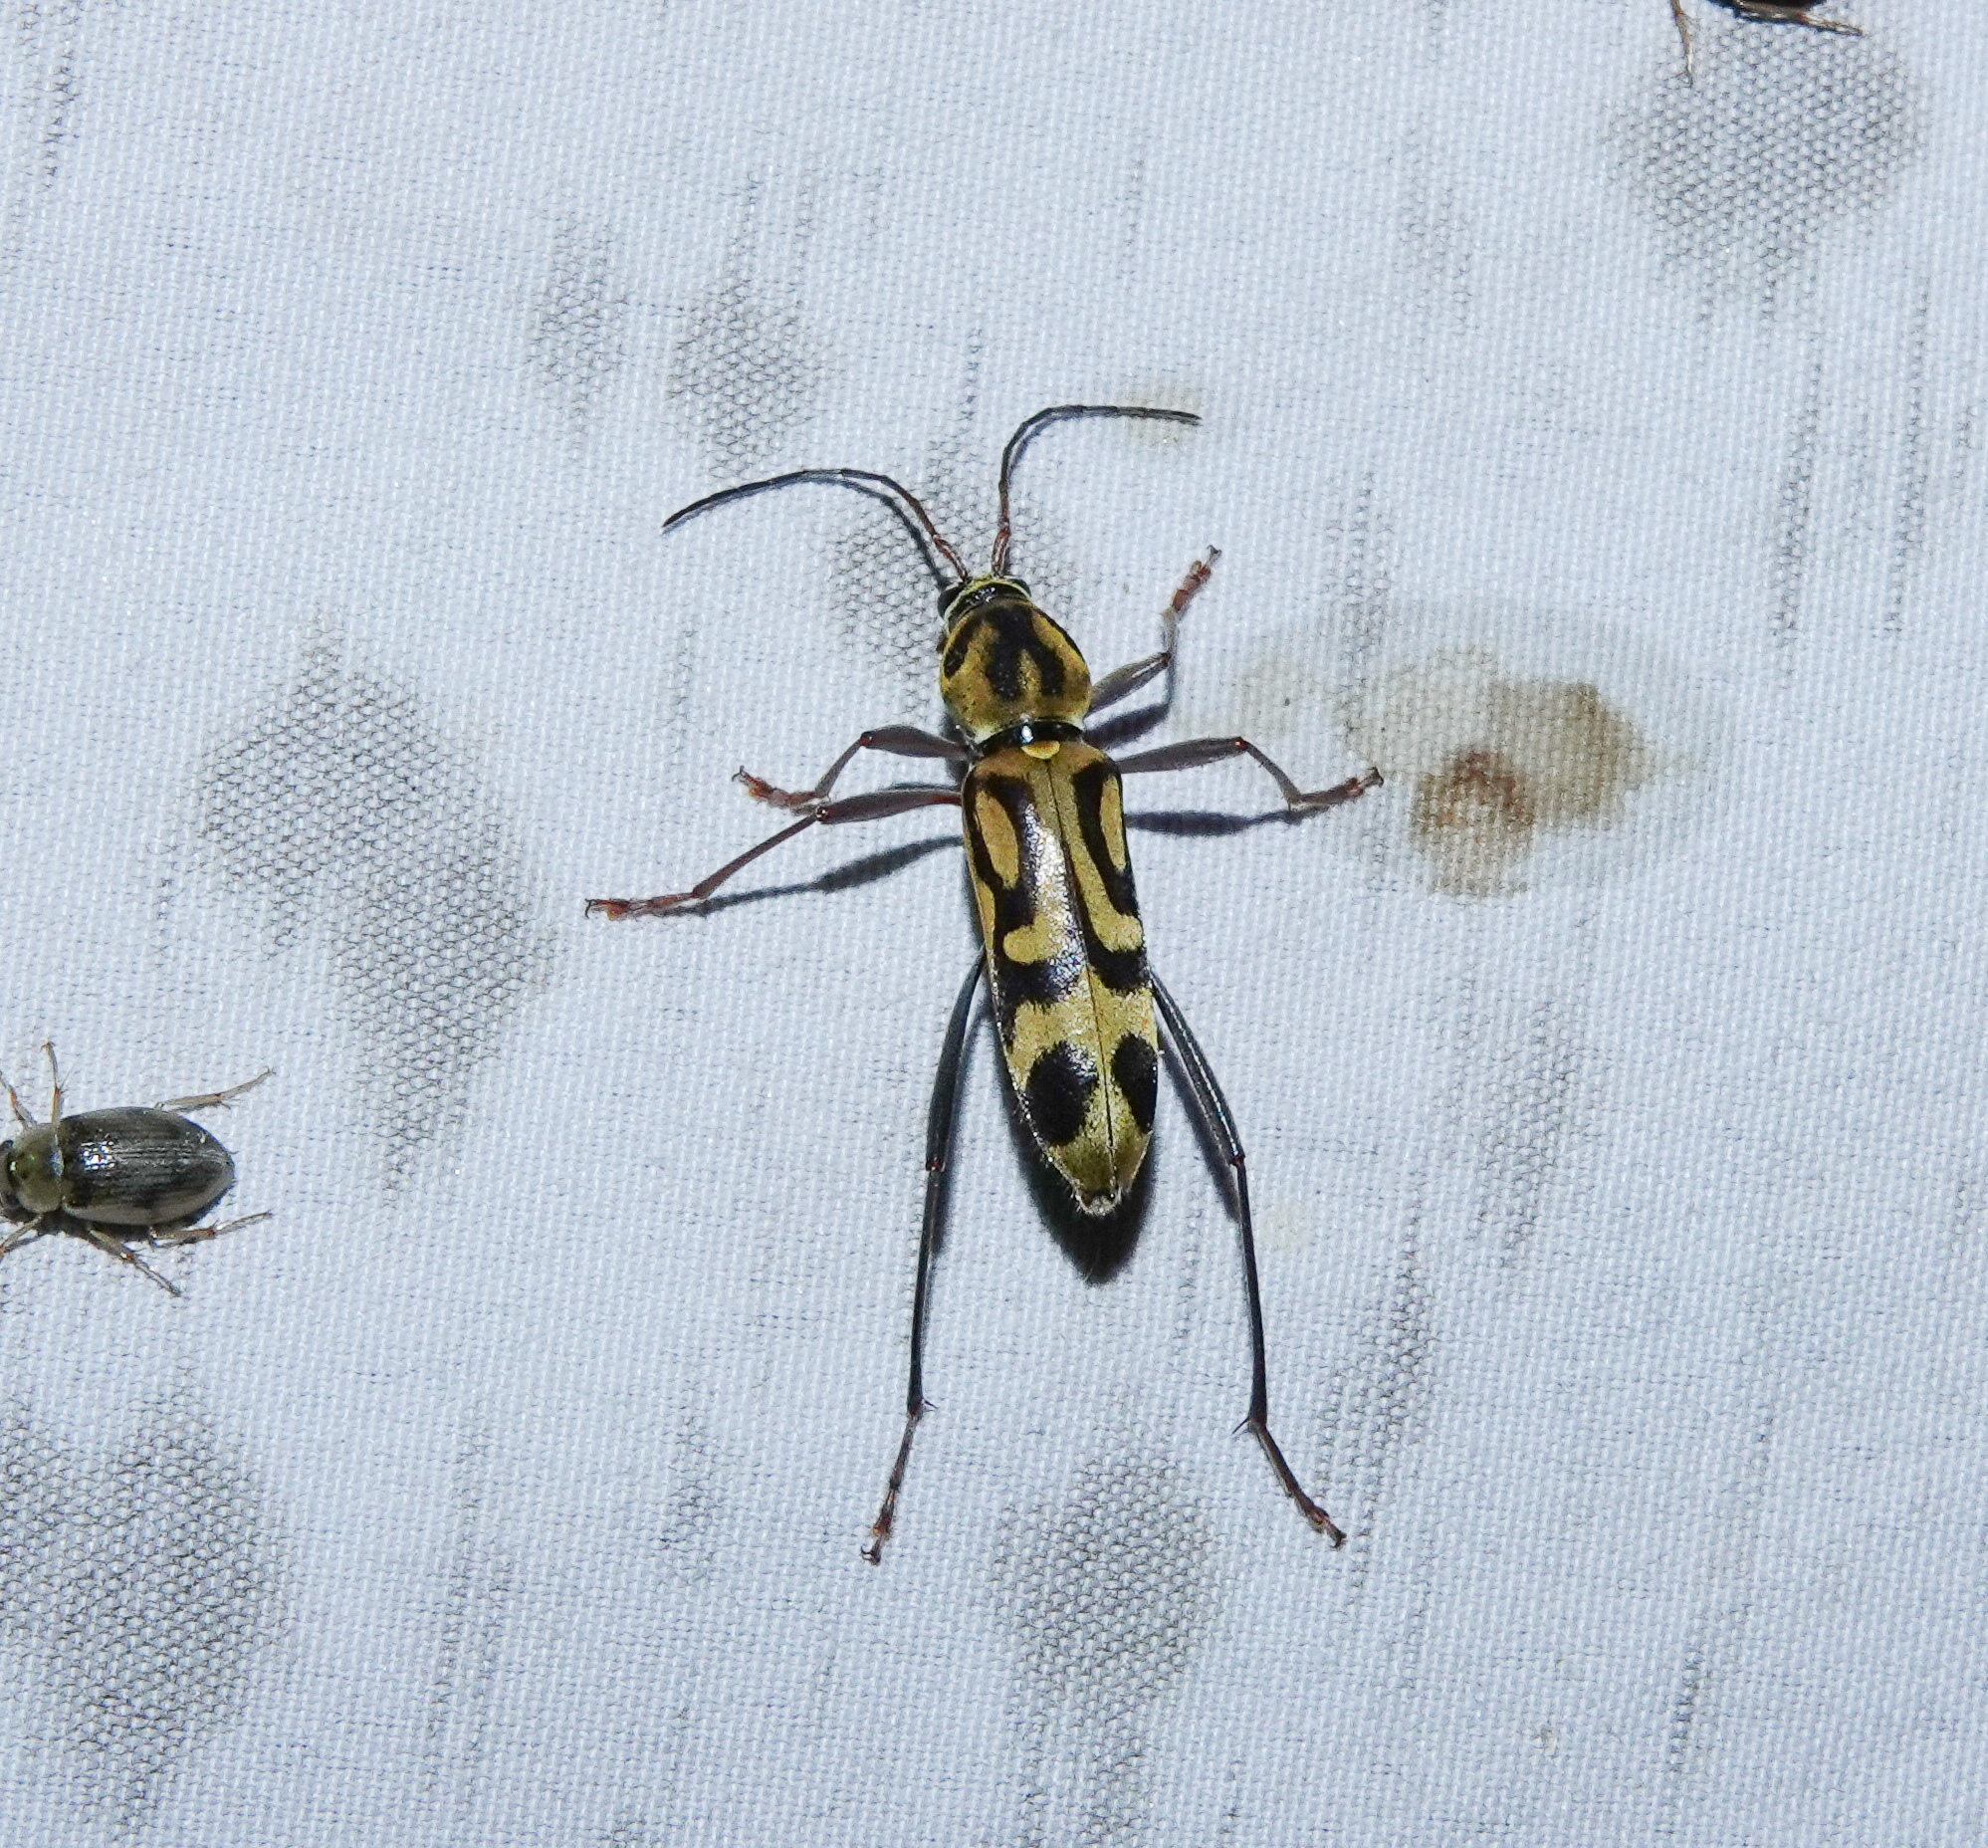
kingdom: Animalia
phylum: Arthropoda
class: Insecta
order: Coleoptera
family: Cerambycidae
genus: Chlorophorus
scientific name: Chlorophorus annularis
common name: Bamboo longhorn beetle
